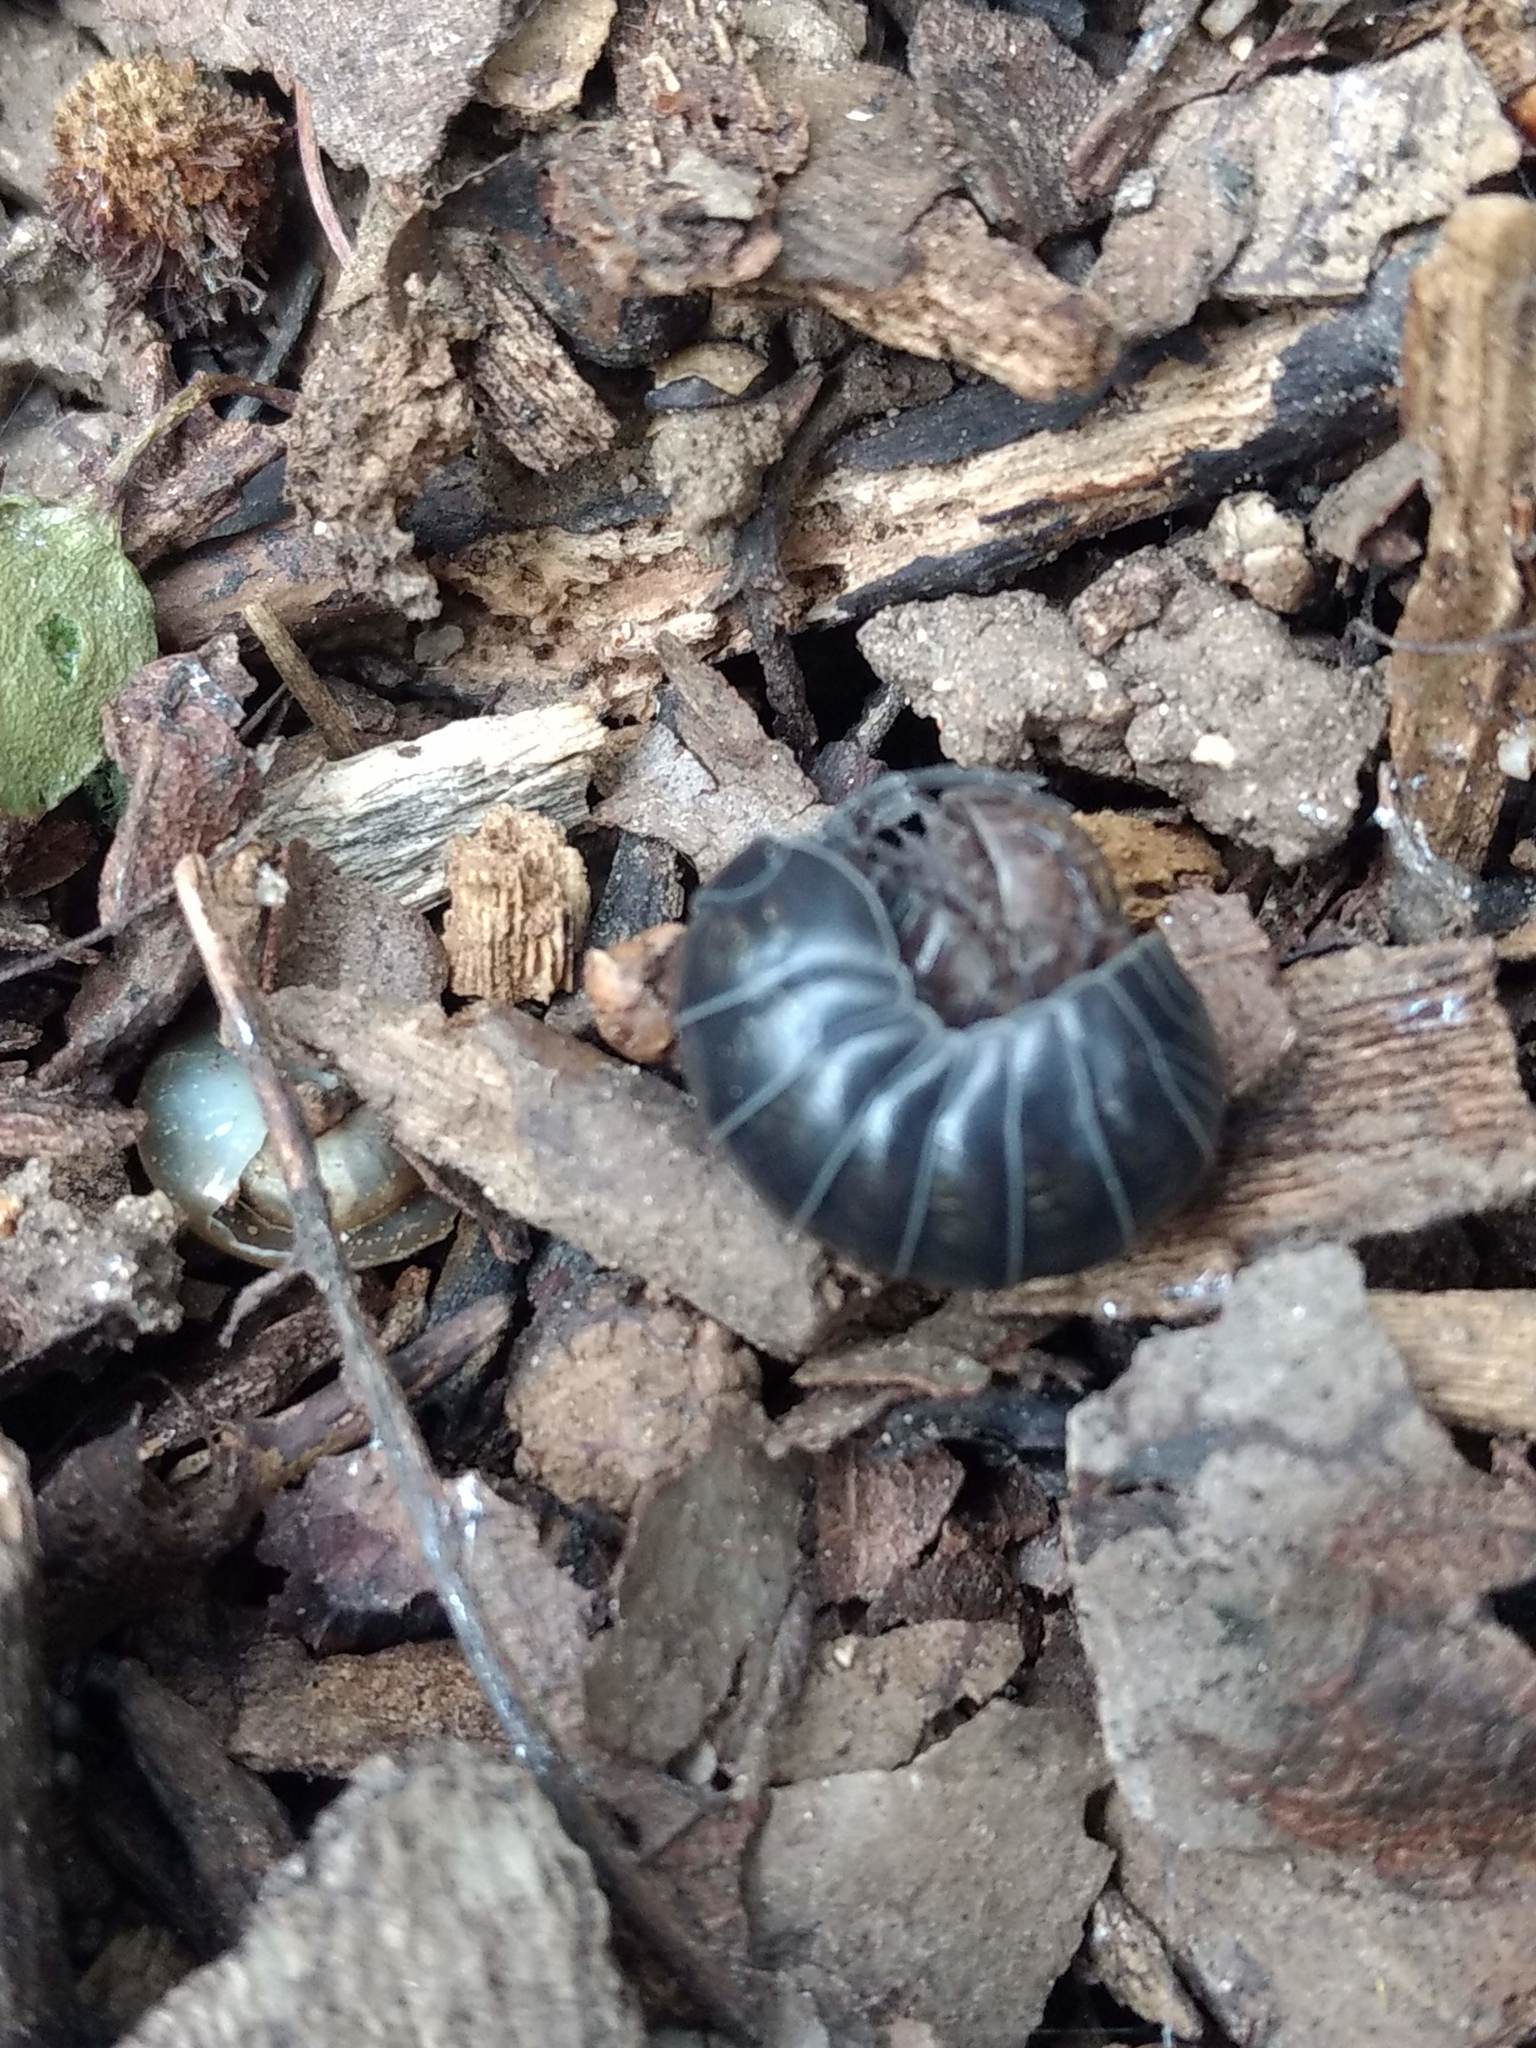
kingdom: Animalia
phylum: Arthropoda
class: Malacostraca
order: Isopoda
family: Armadillidiidae
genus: Armadillidium
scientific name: Armadillidium vulgare
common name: Common pill woodlouse
